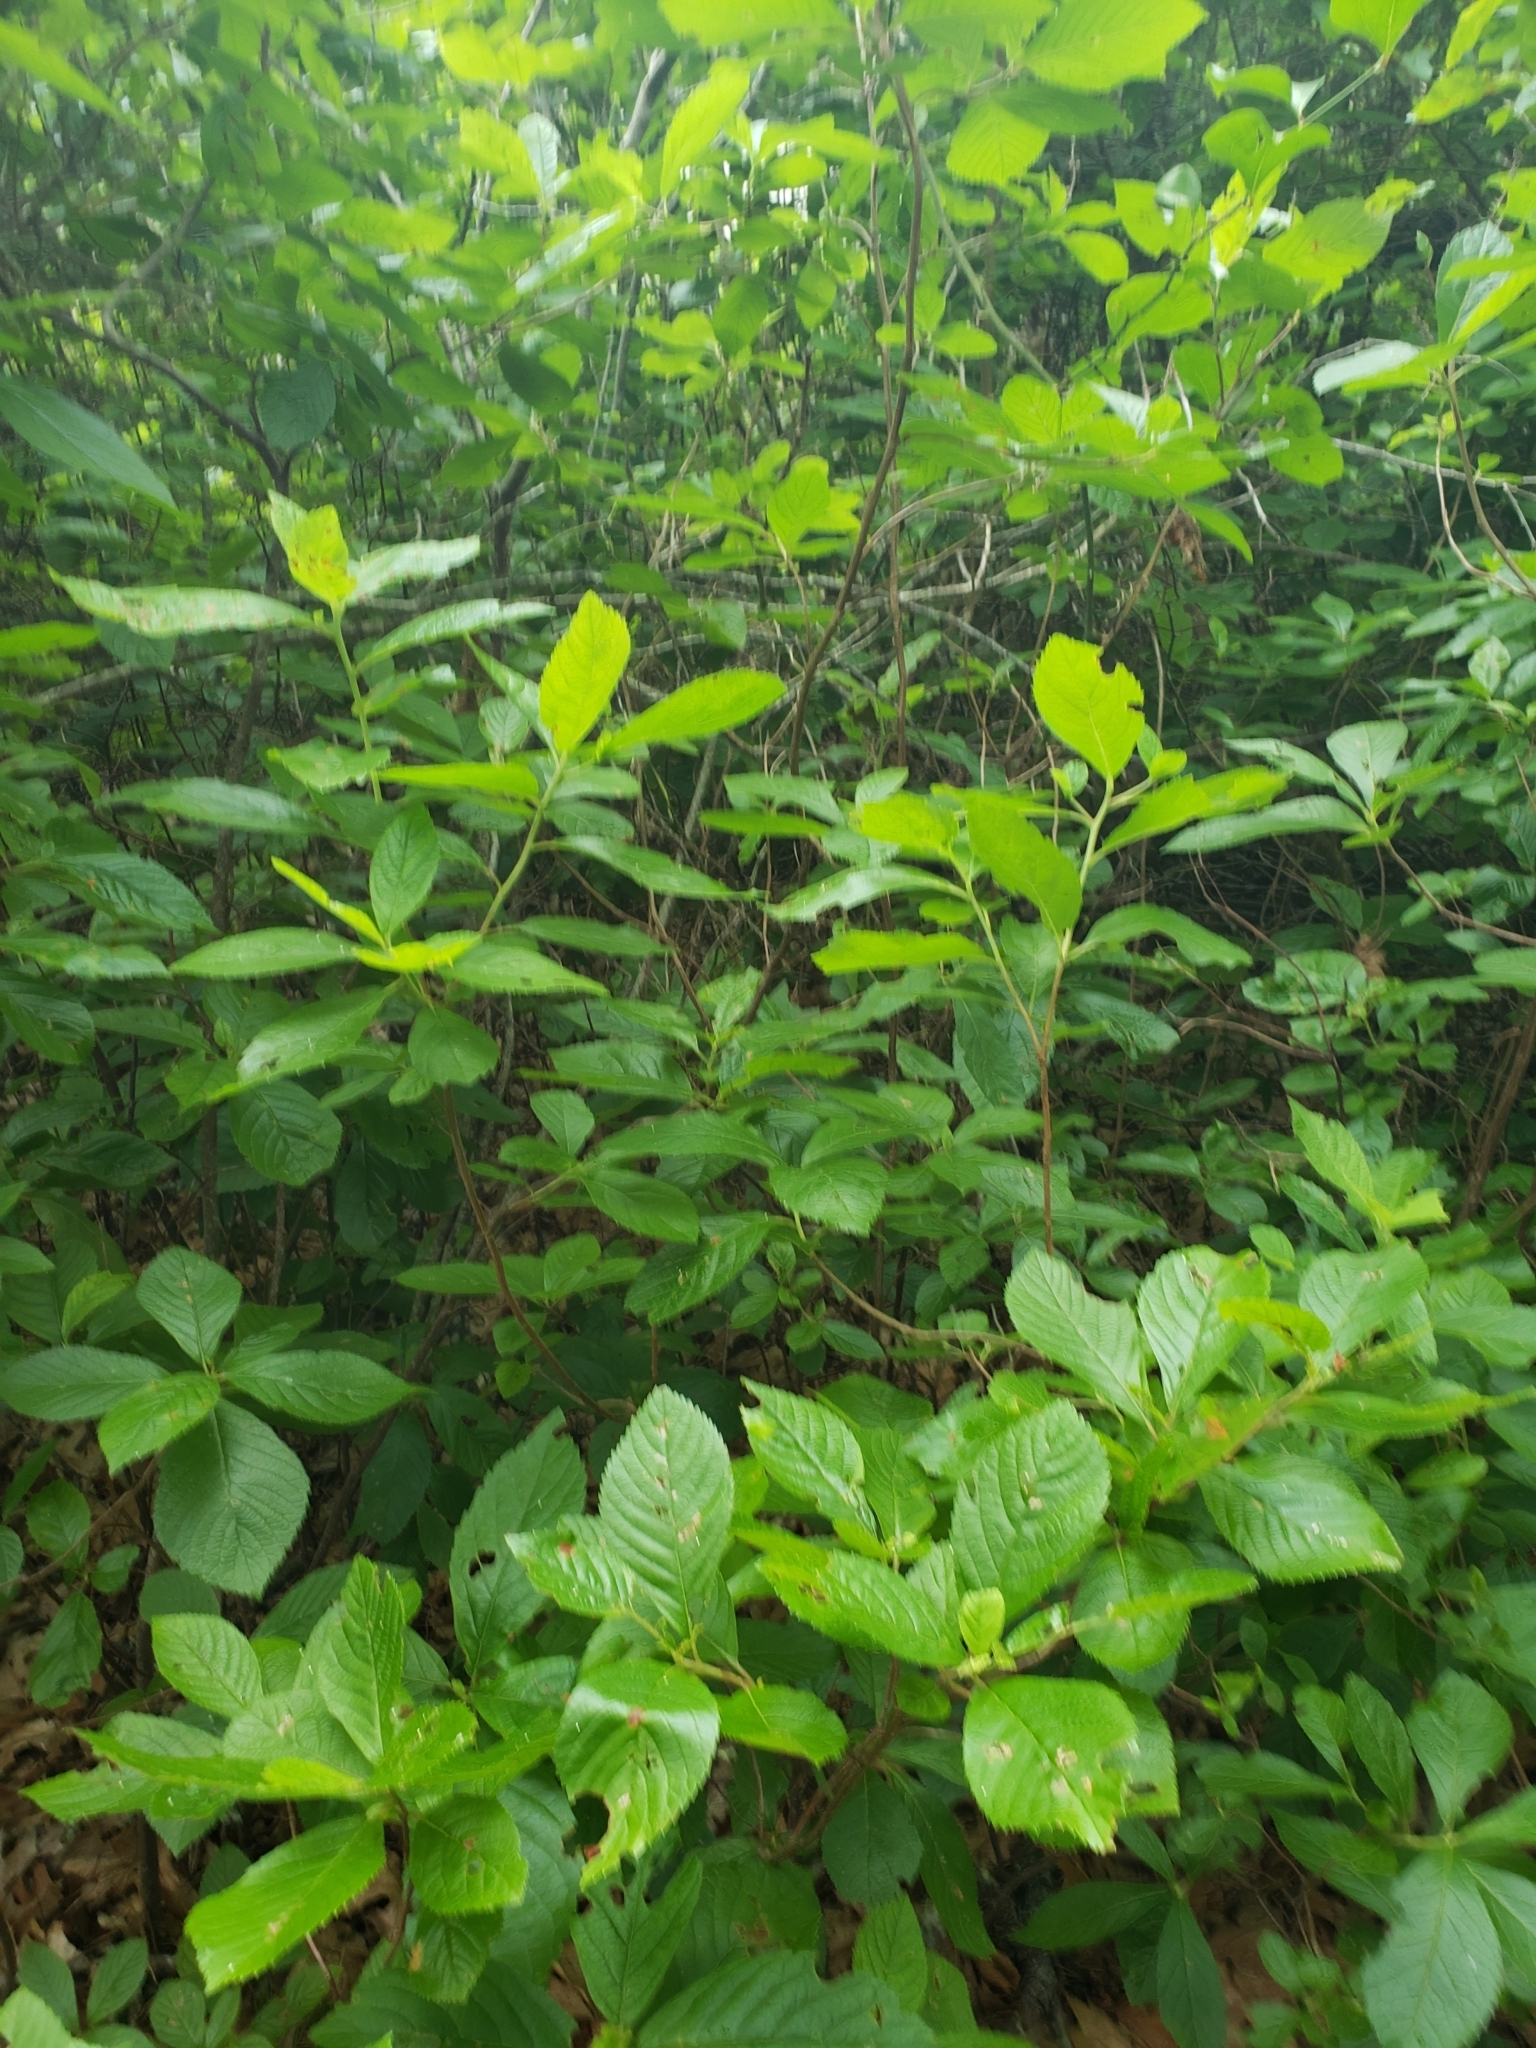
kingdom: Plantae
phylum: Tracheophyta
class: Magnoliopsida
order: Ericales
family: Clethraceae
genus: Clethra
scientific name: Clethra alnifolia
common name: Sweet pepperbush
